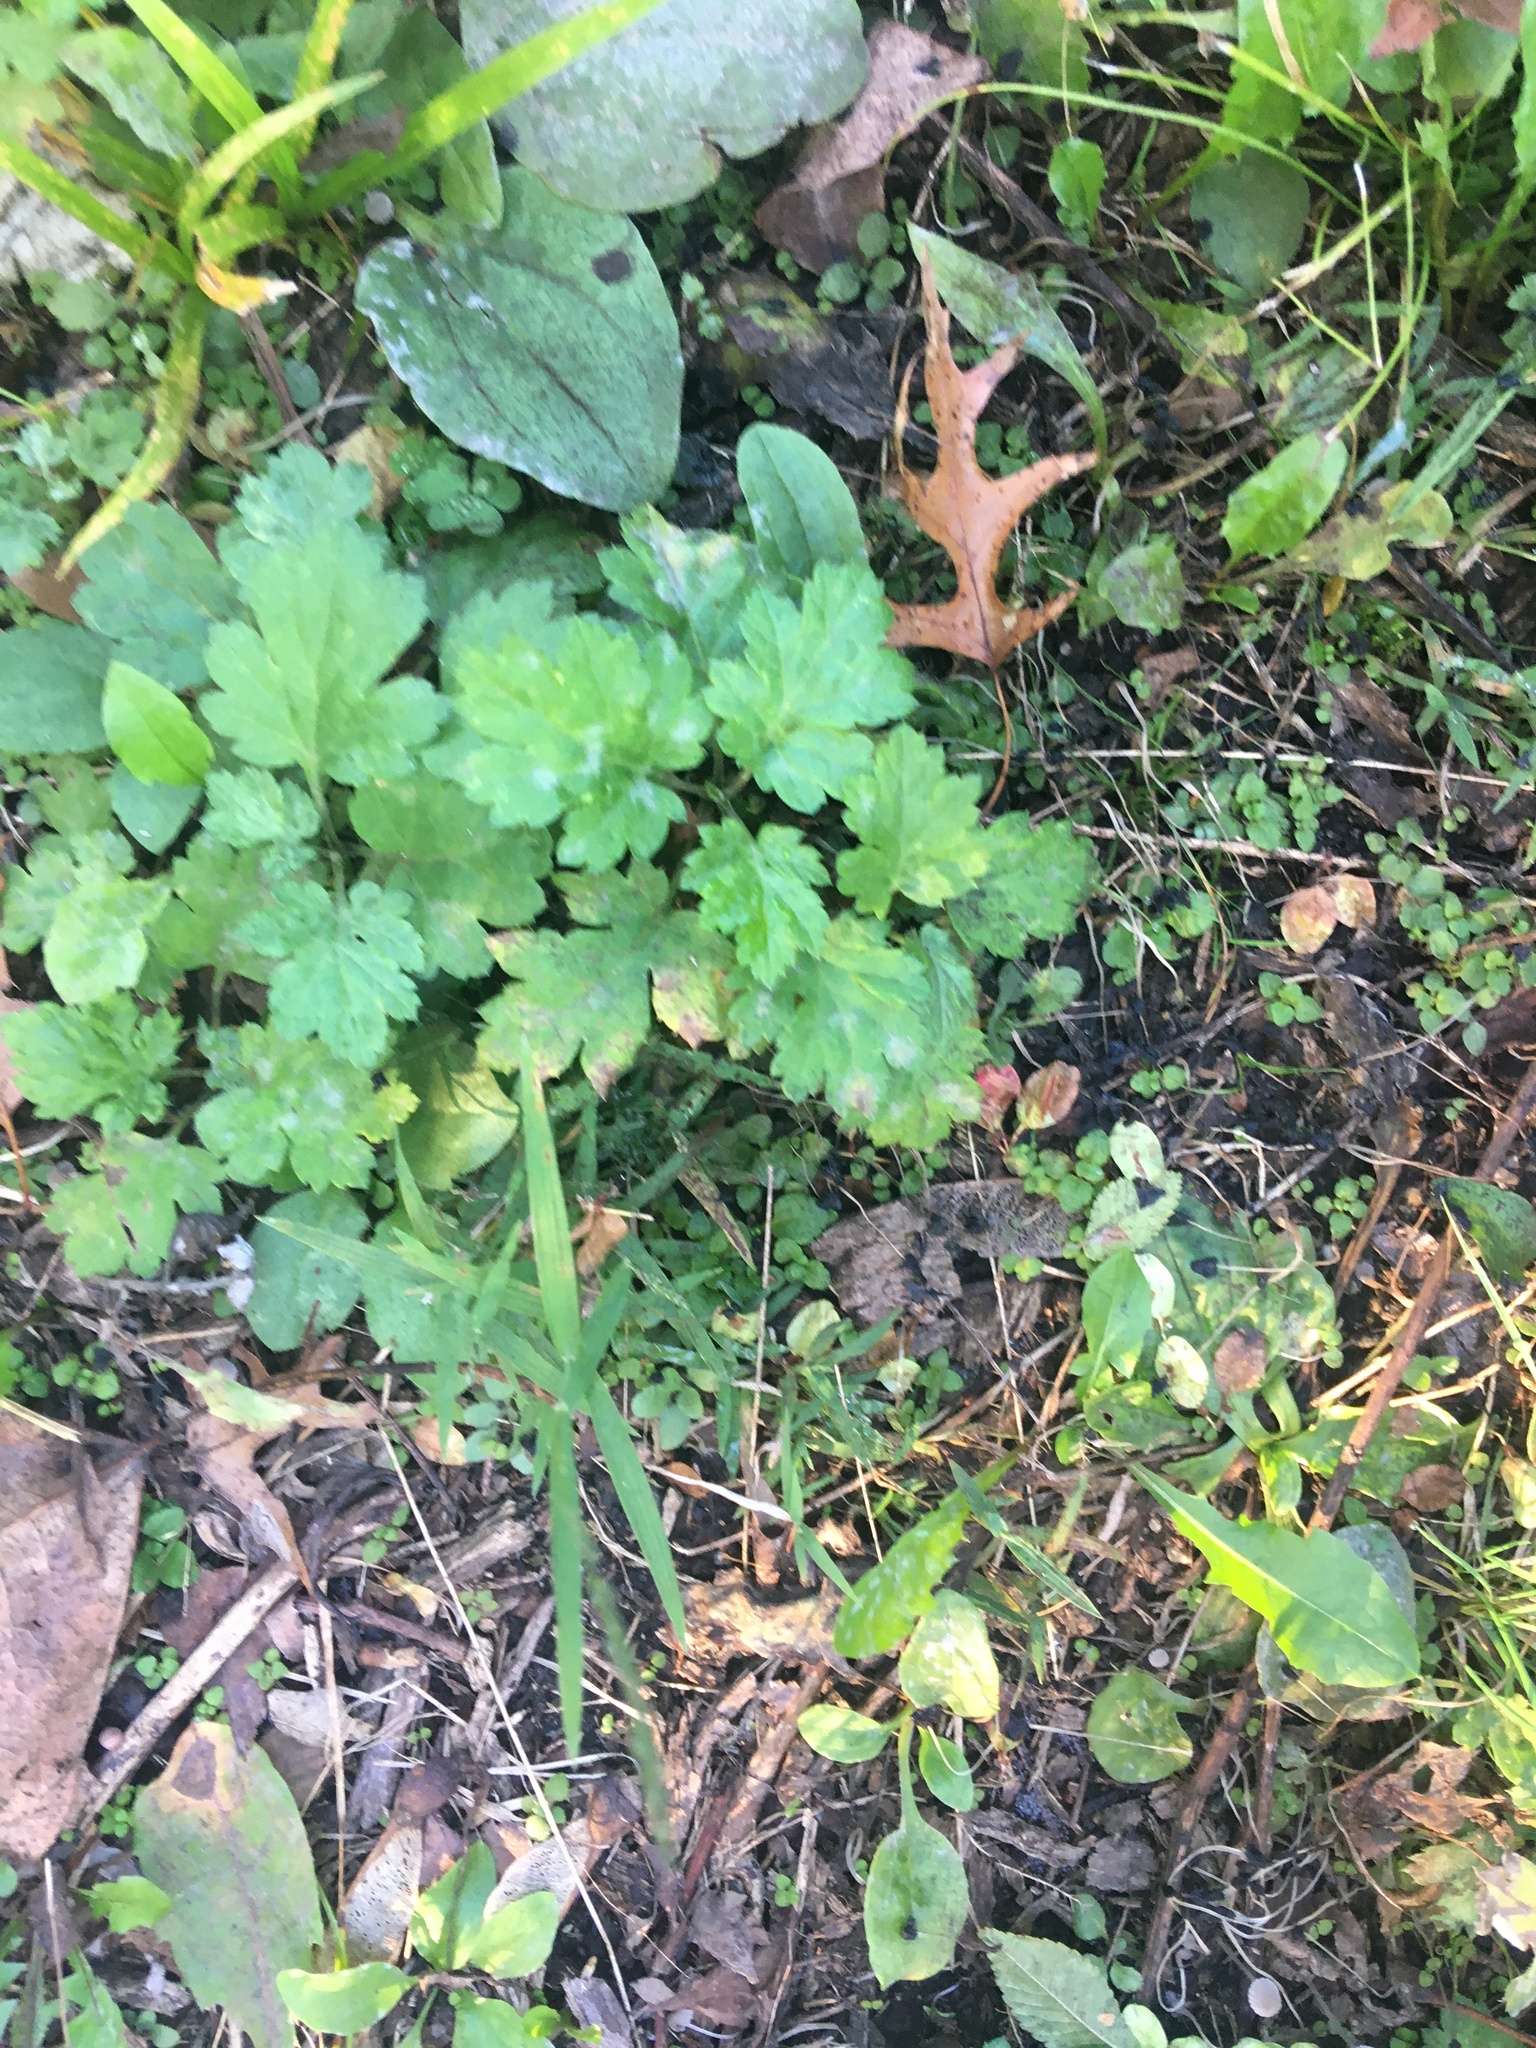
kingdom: Plantae
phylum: Tracheophyta
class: Magnoliopsida
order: Asterales
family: Asteraceae
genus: Artemisia
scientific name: Artemisia vulgaris
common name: Mugwort
